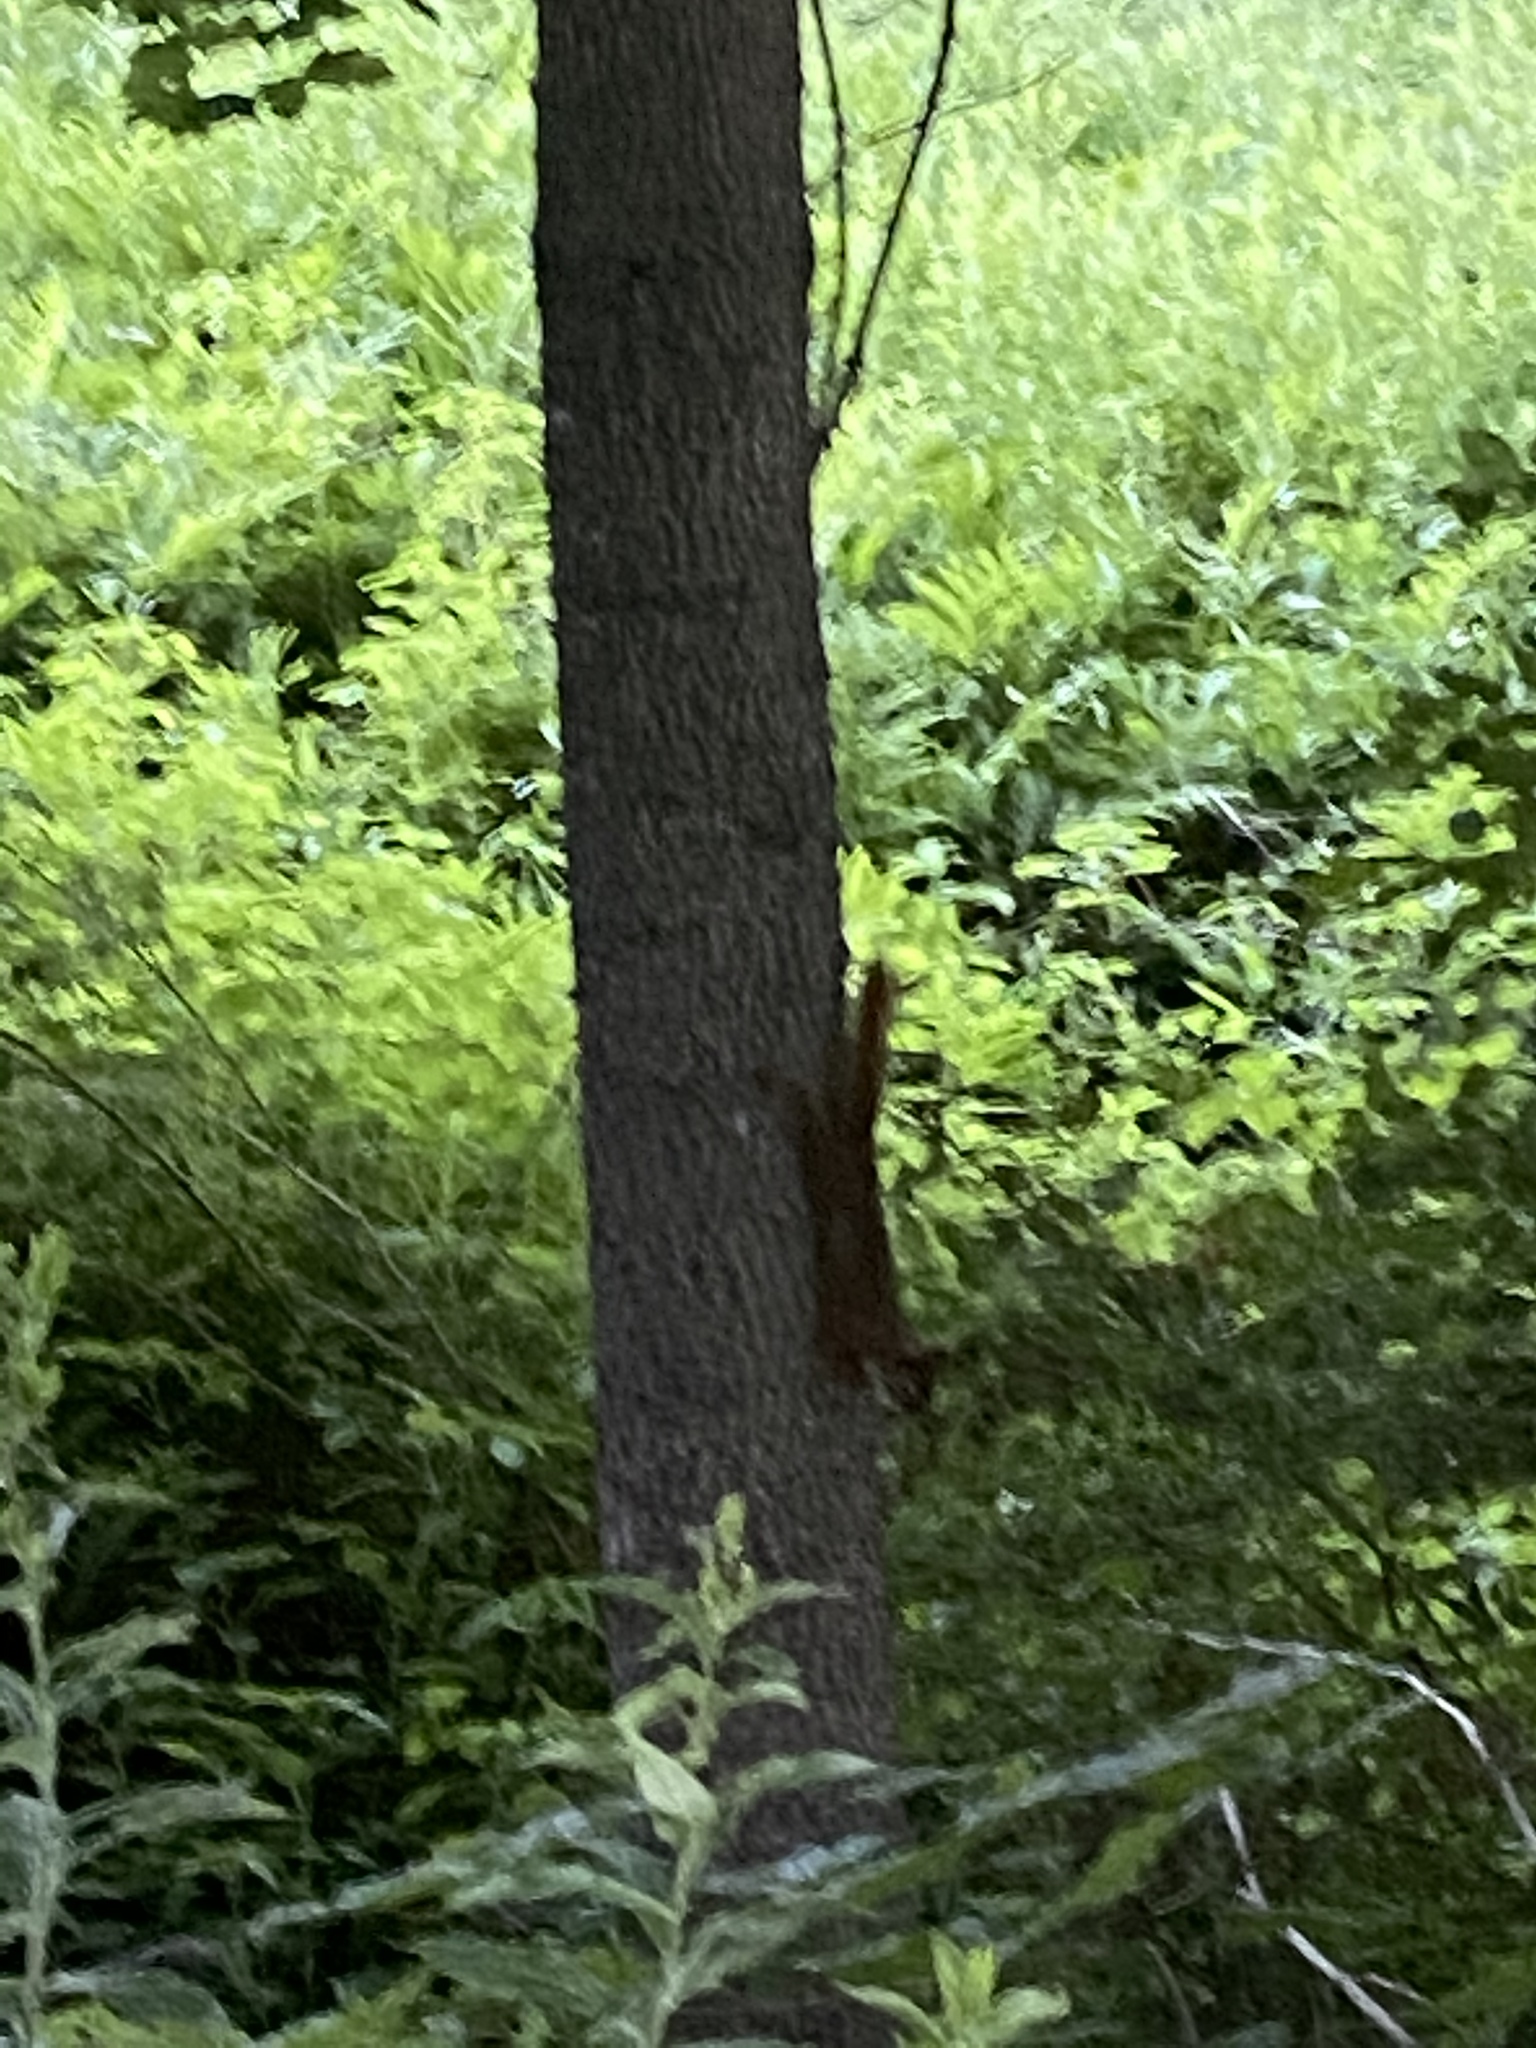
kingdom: Animalia
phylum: Chordata
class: Mammalia
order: Rodentia
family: Sciuridae
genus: Tamiasciurus
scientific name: Tamiasciurus hudsonicus
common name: Red squirrel
